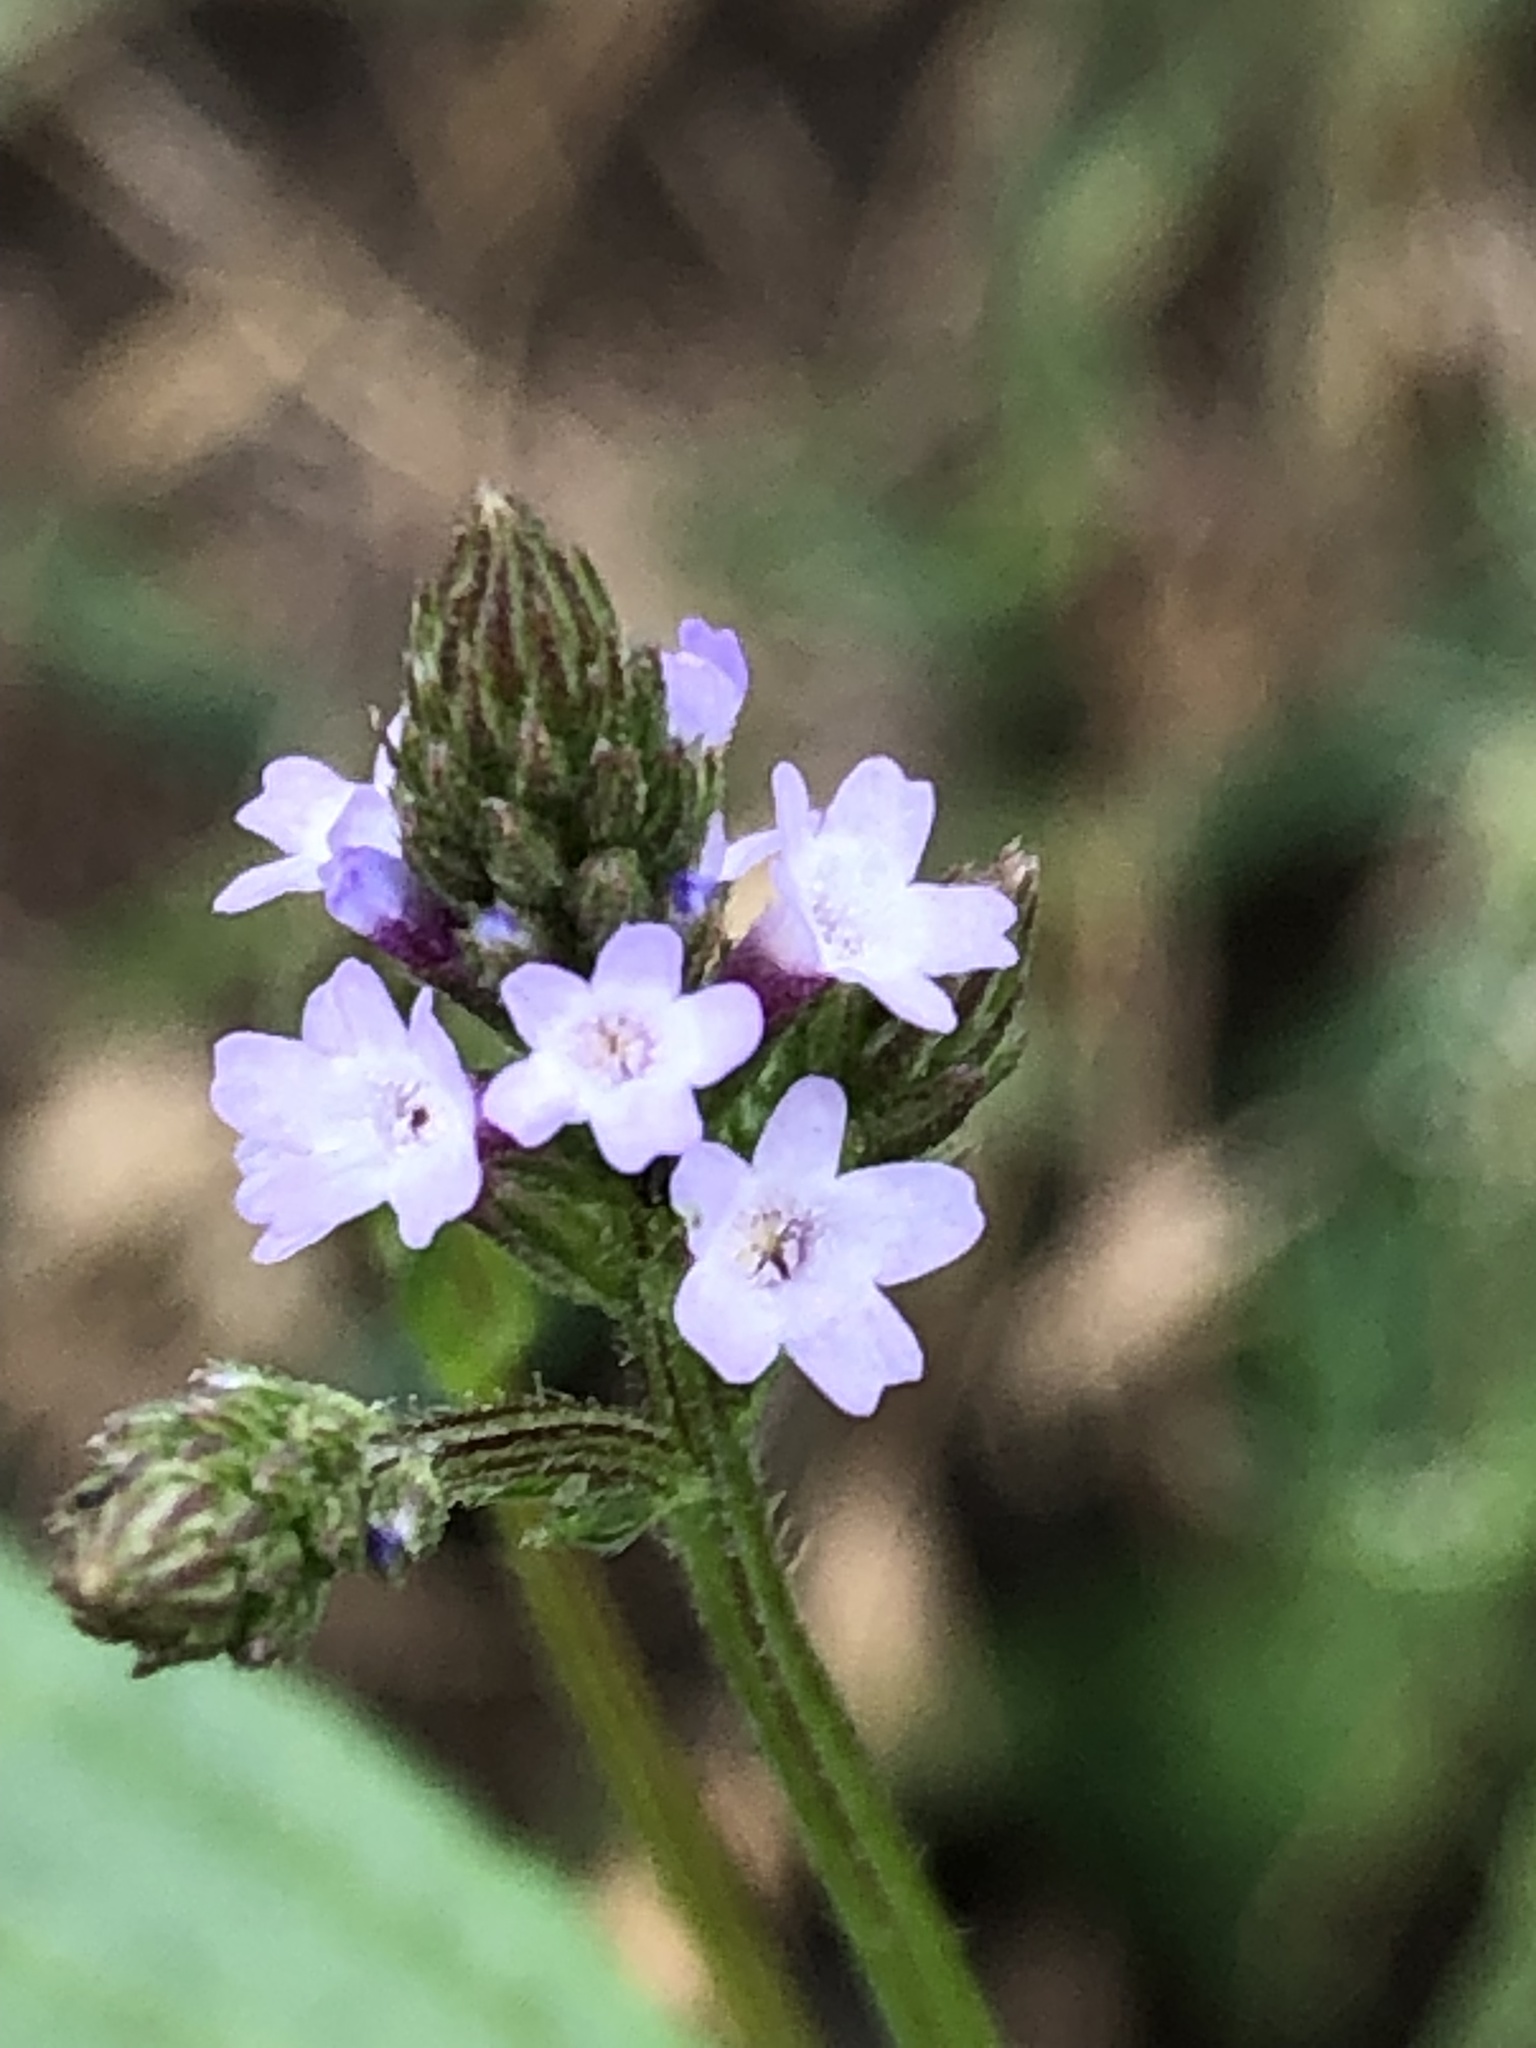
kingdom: Plantae
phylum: Tracheophyta
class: Magnoliopsida
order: Lamiales
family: Verbenaceae
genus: Verbena
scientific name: Verbena litoralis
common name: Seashore vervain
